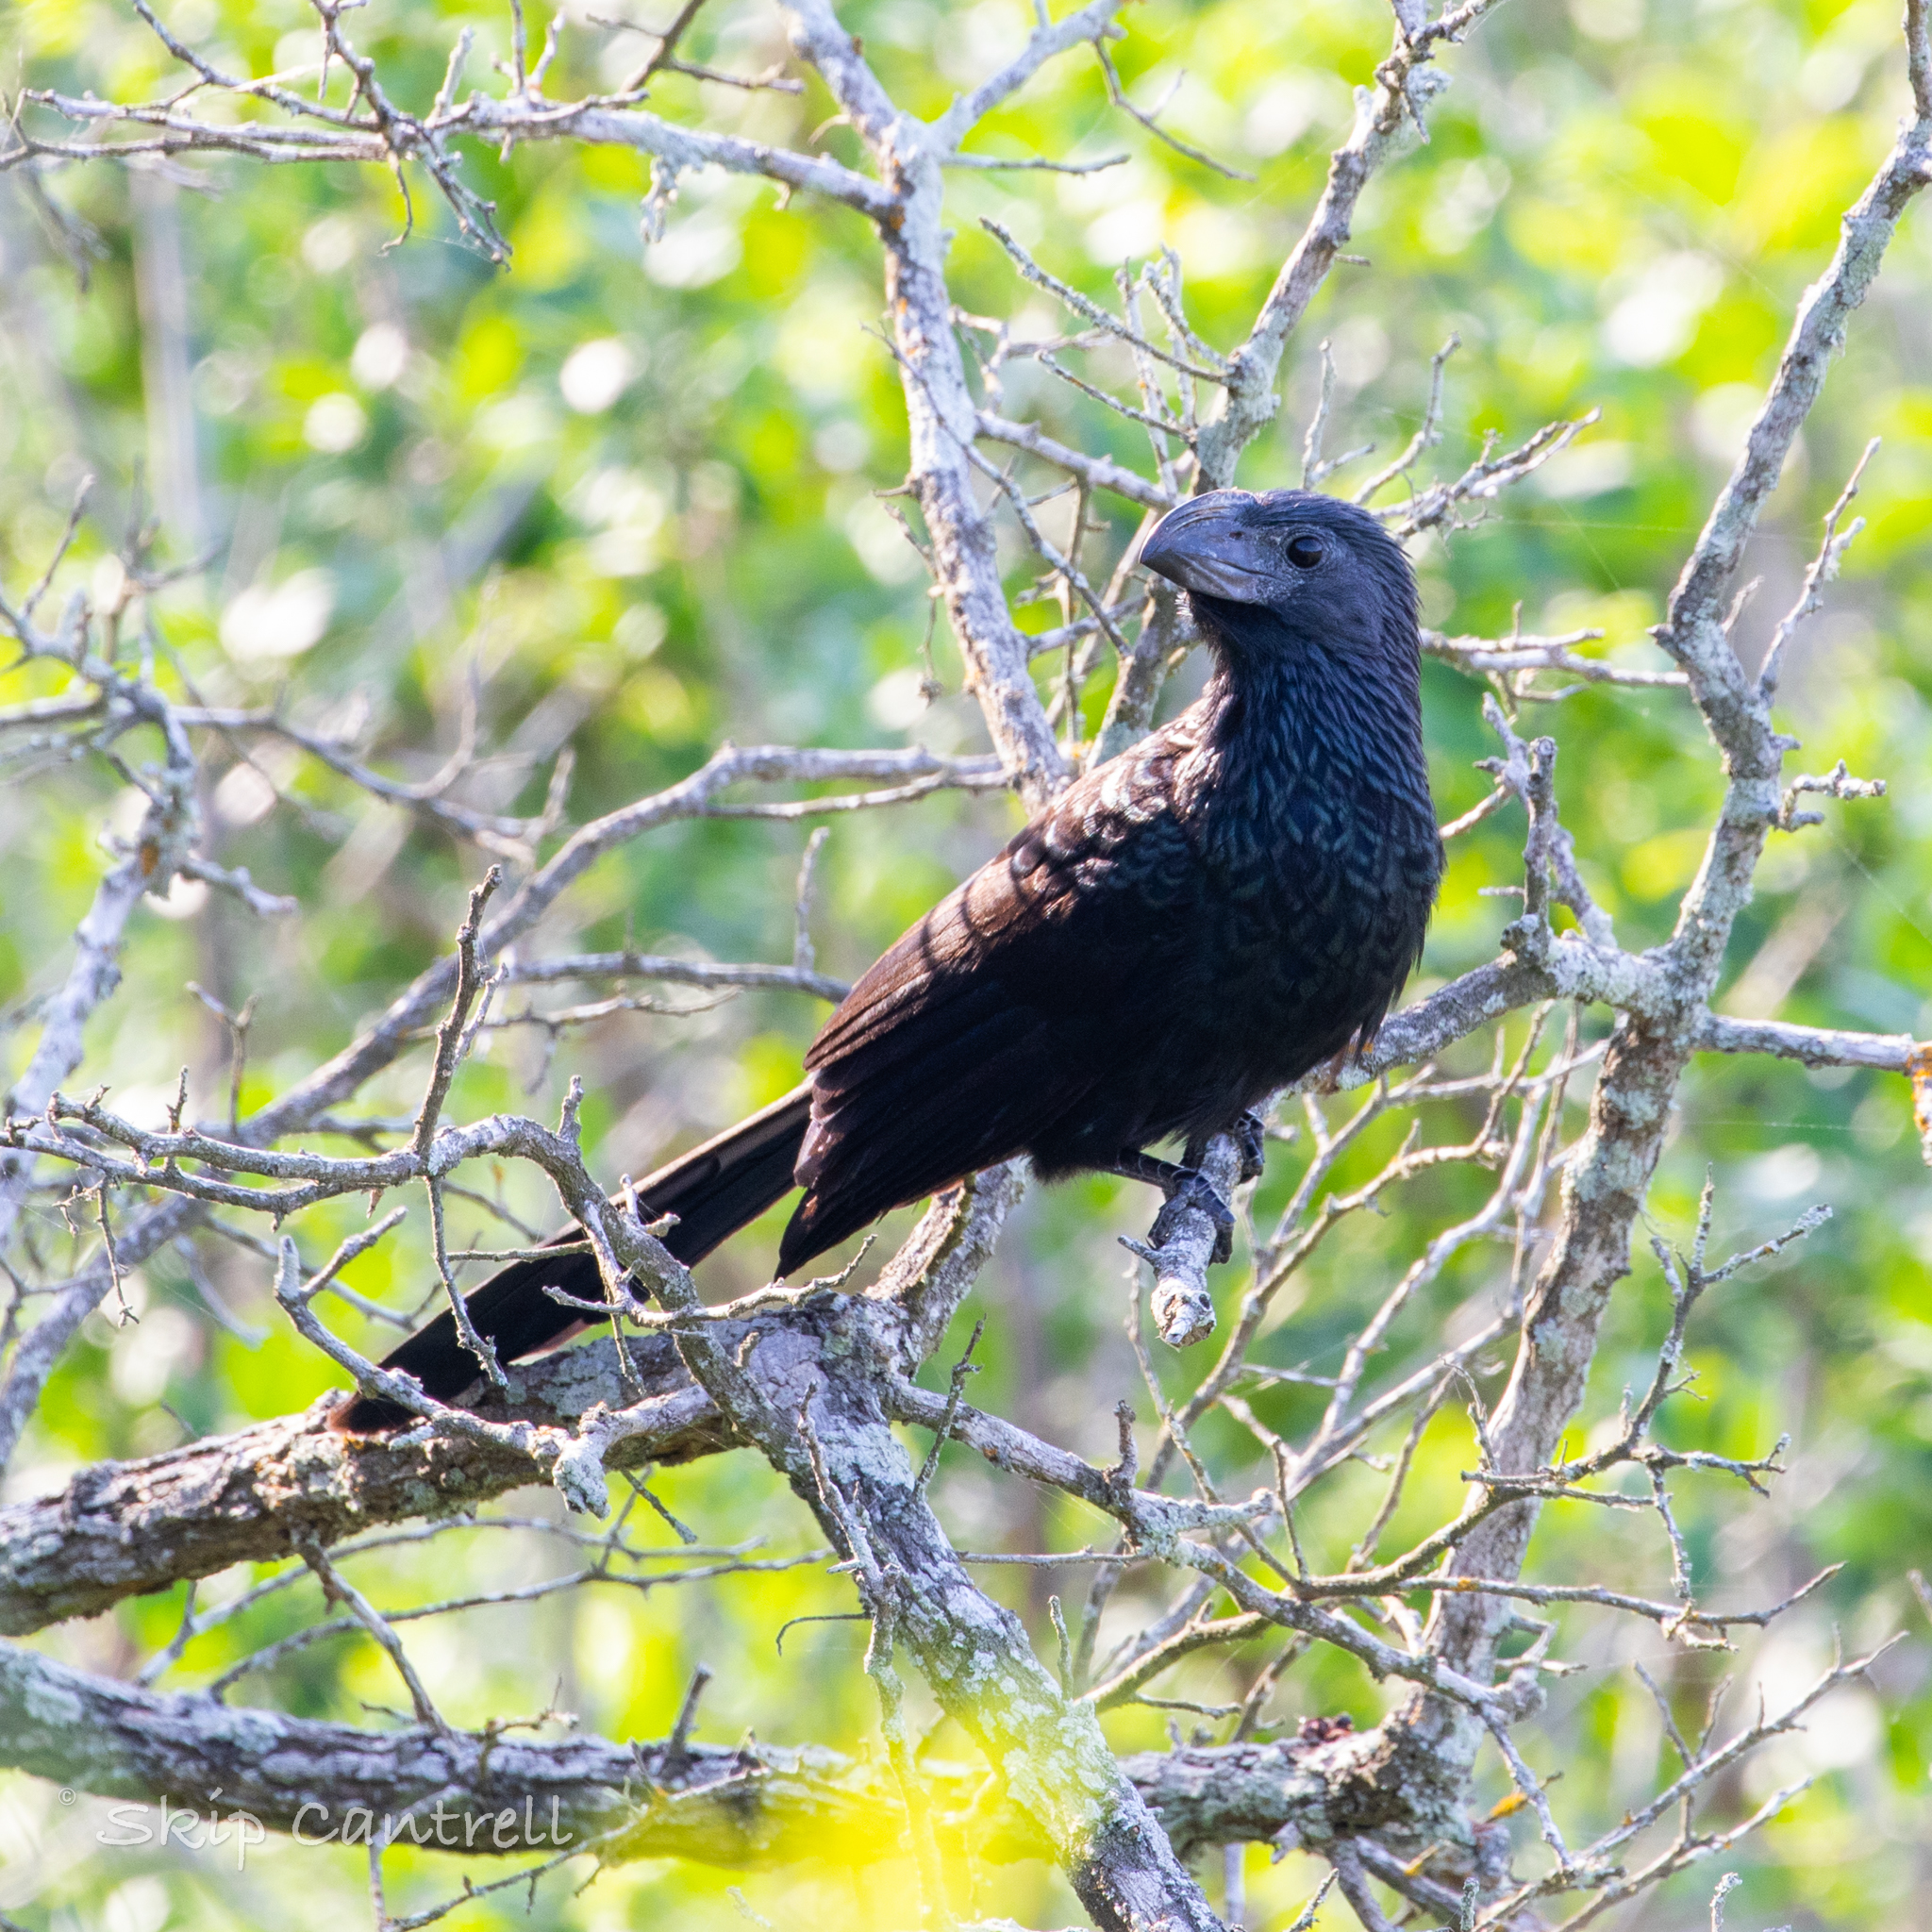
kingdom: Animalia
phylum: Chordata
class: Aves
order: Cuculiformes
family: Cuculidae
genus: Crotophaga
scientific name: Crotophaga sulcirostris
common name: Groove-billed ani
